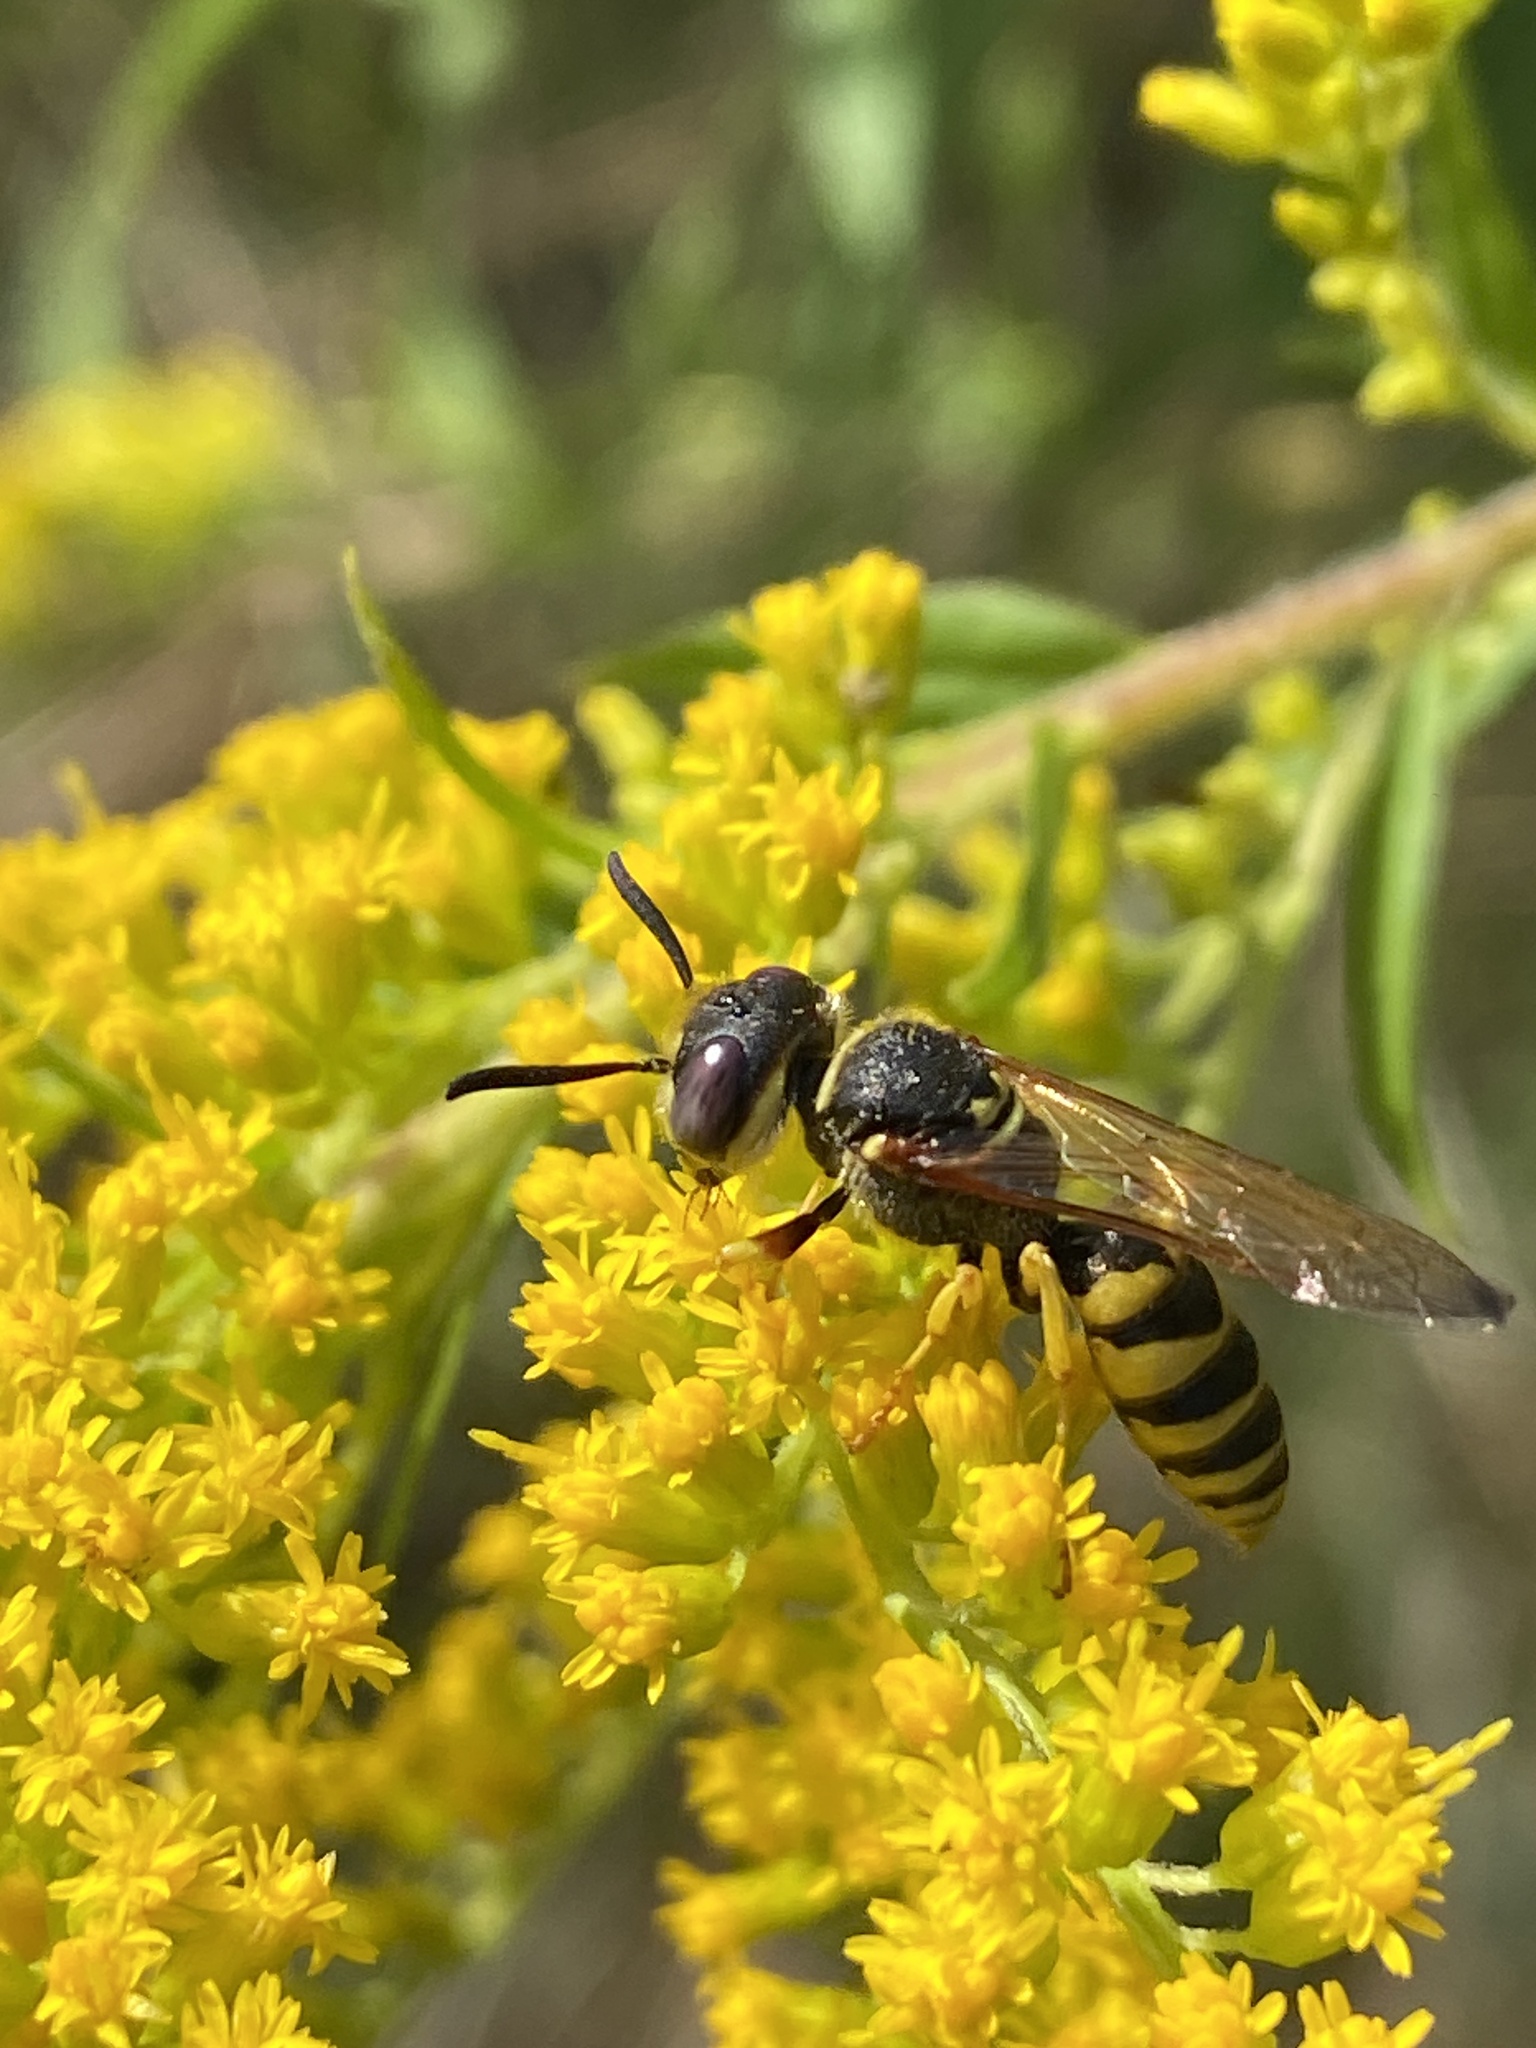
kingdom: Animalia
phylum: Arthropoda
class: Insecta
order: Hymenoptera
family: Crabronidae
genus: Philanthus
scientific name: Philanthus triangulum
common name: Bee wolf
